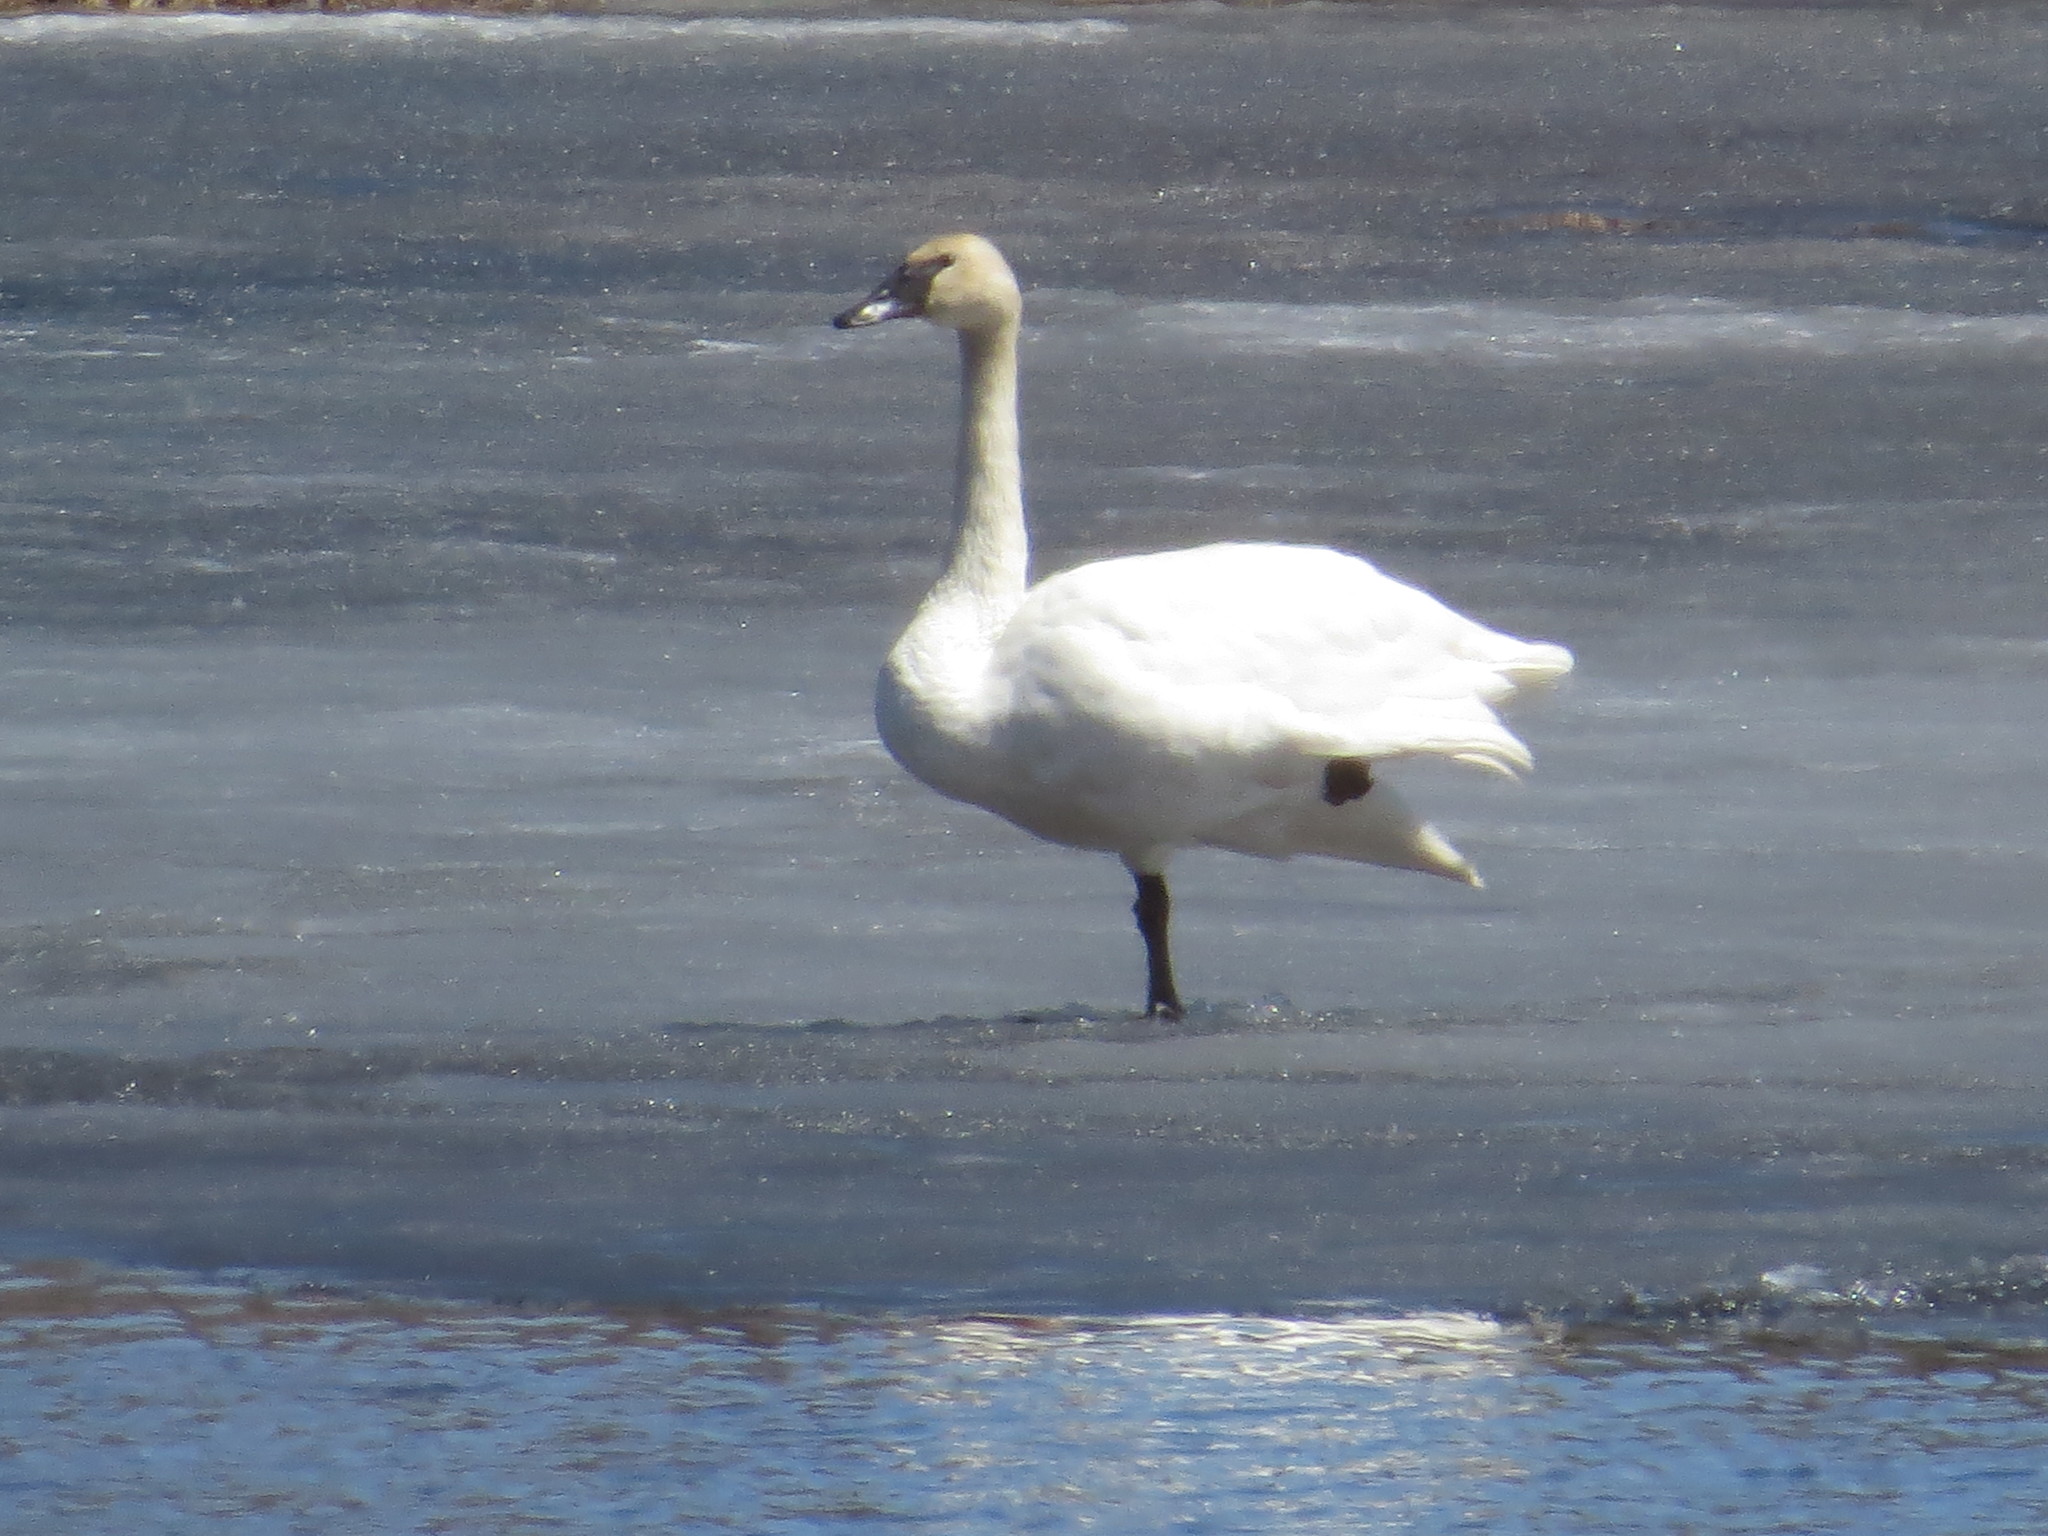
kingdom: Animalia
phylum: Chordata
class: Aves
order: Anseriformes
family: Anatidae
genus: Cygnus
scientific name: Cygnus buccinator
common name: Trumpeter swan
